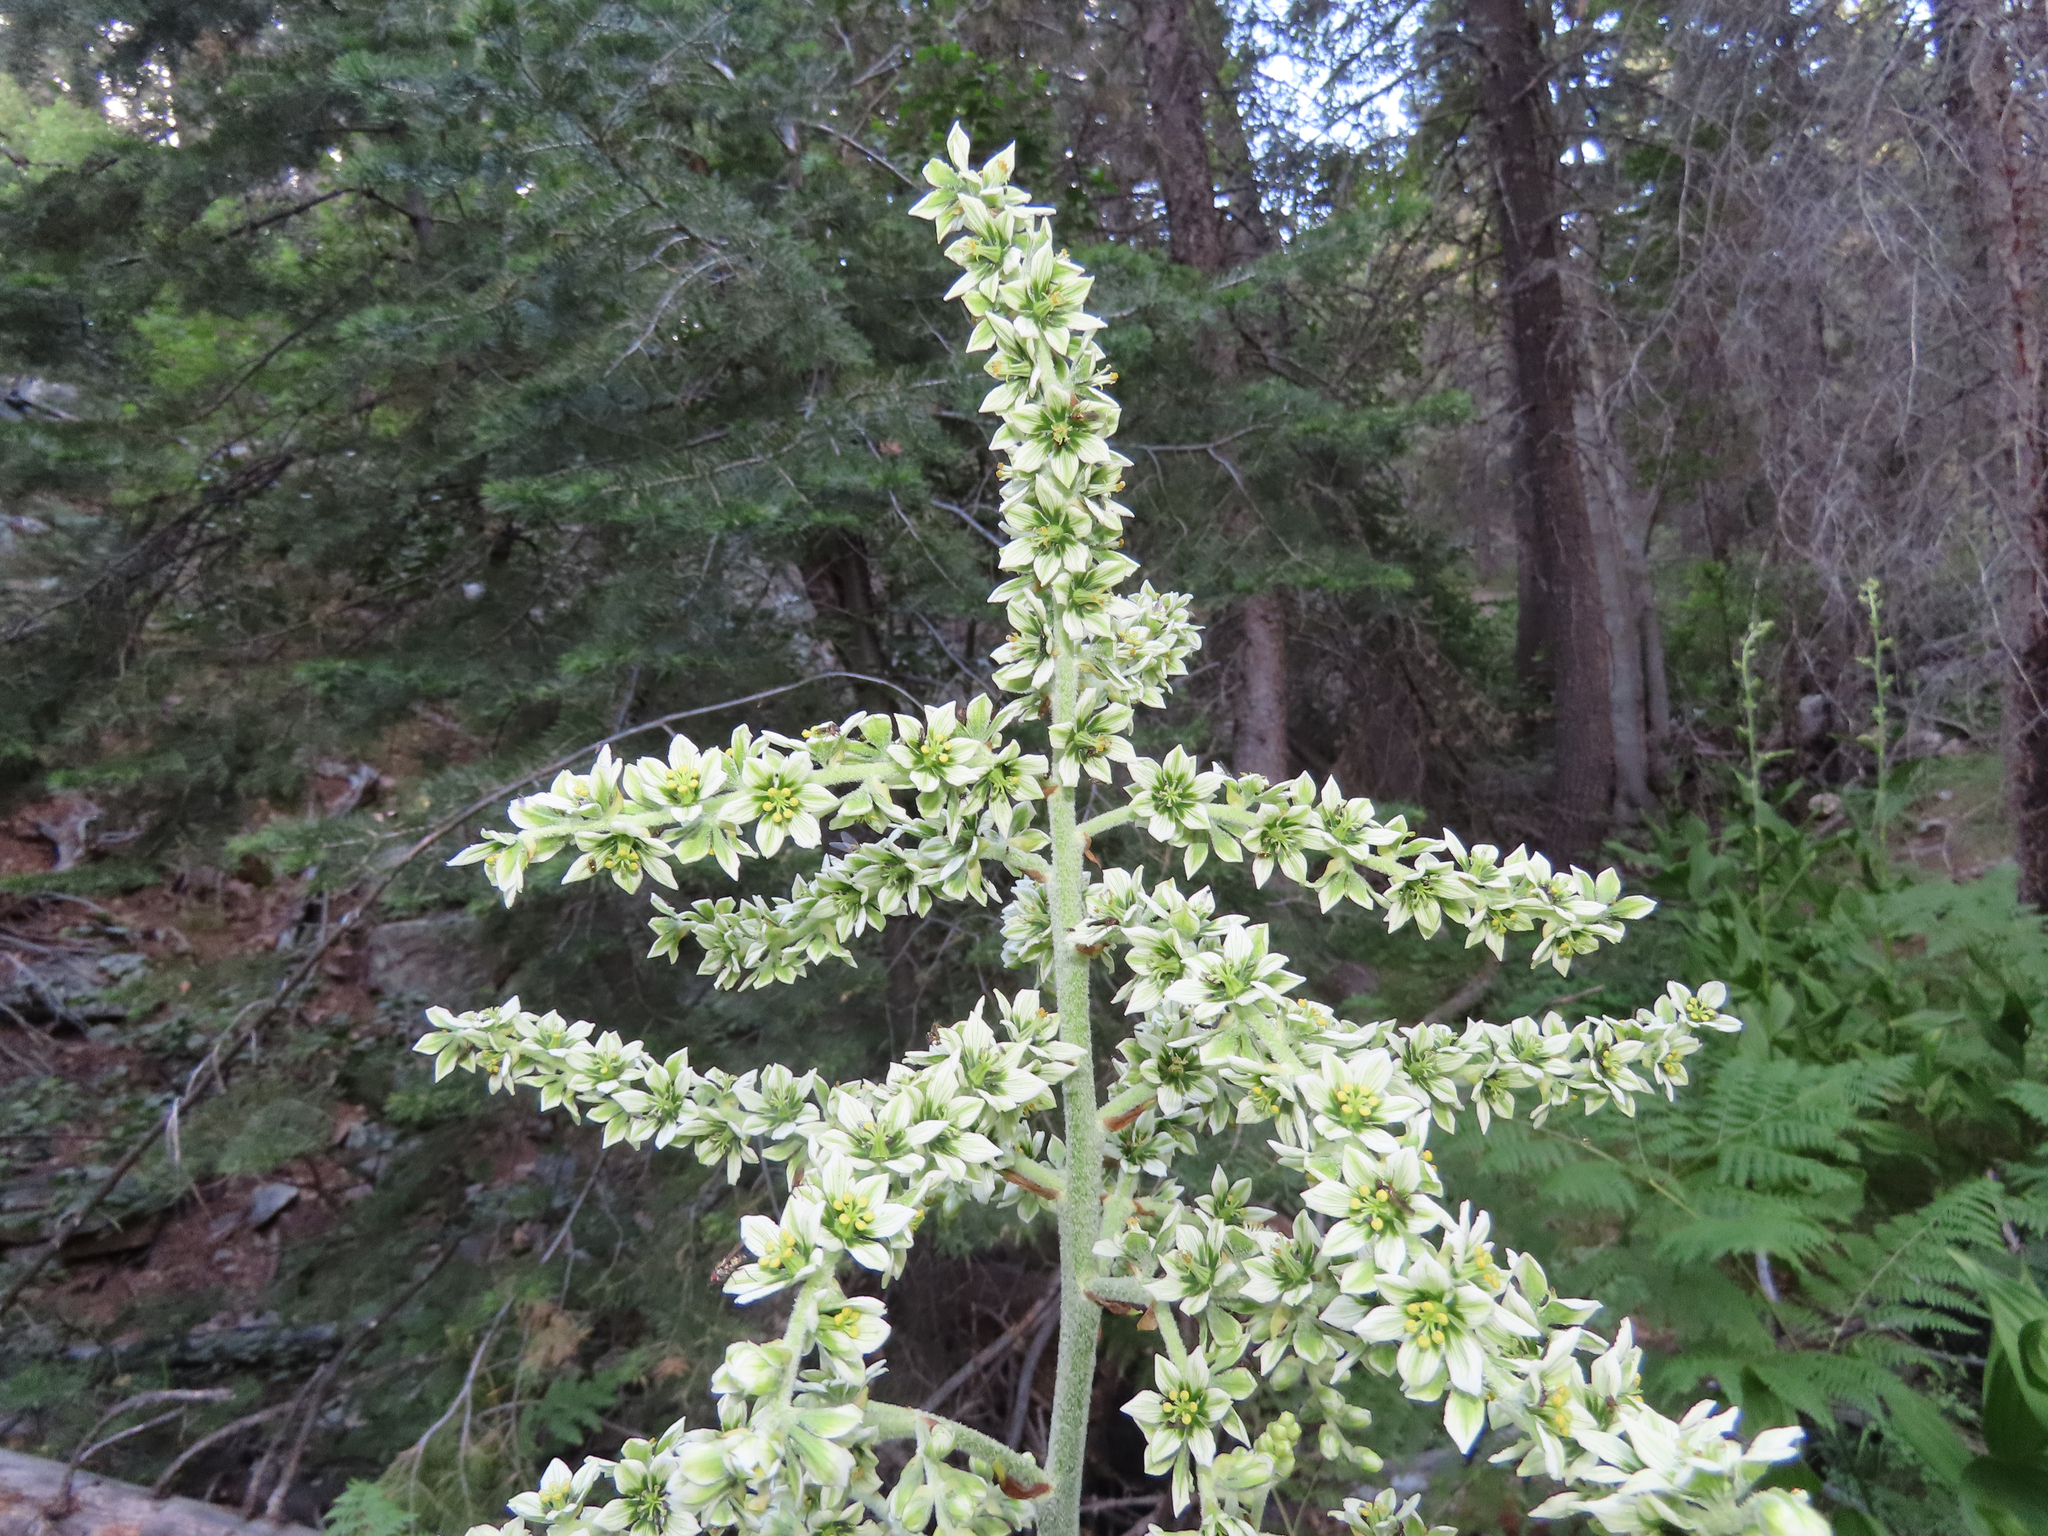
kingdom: Plantae
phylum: Tracheophyta
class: Liliopsida
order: Liliales
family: Melanthiaceae
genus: Veratrum
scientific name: Veratrum californicum
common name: California veratrum
